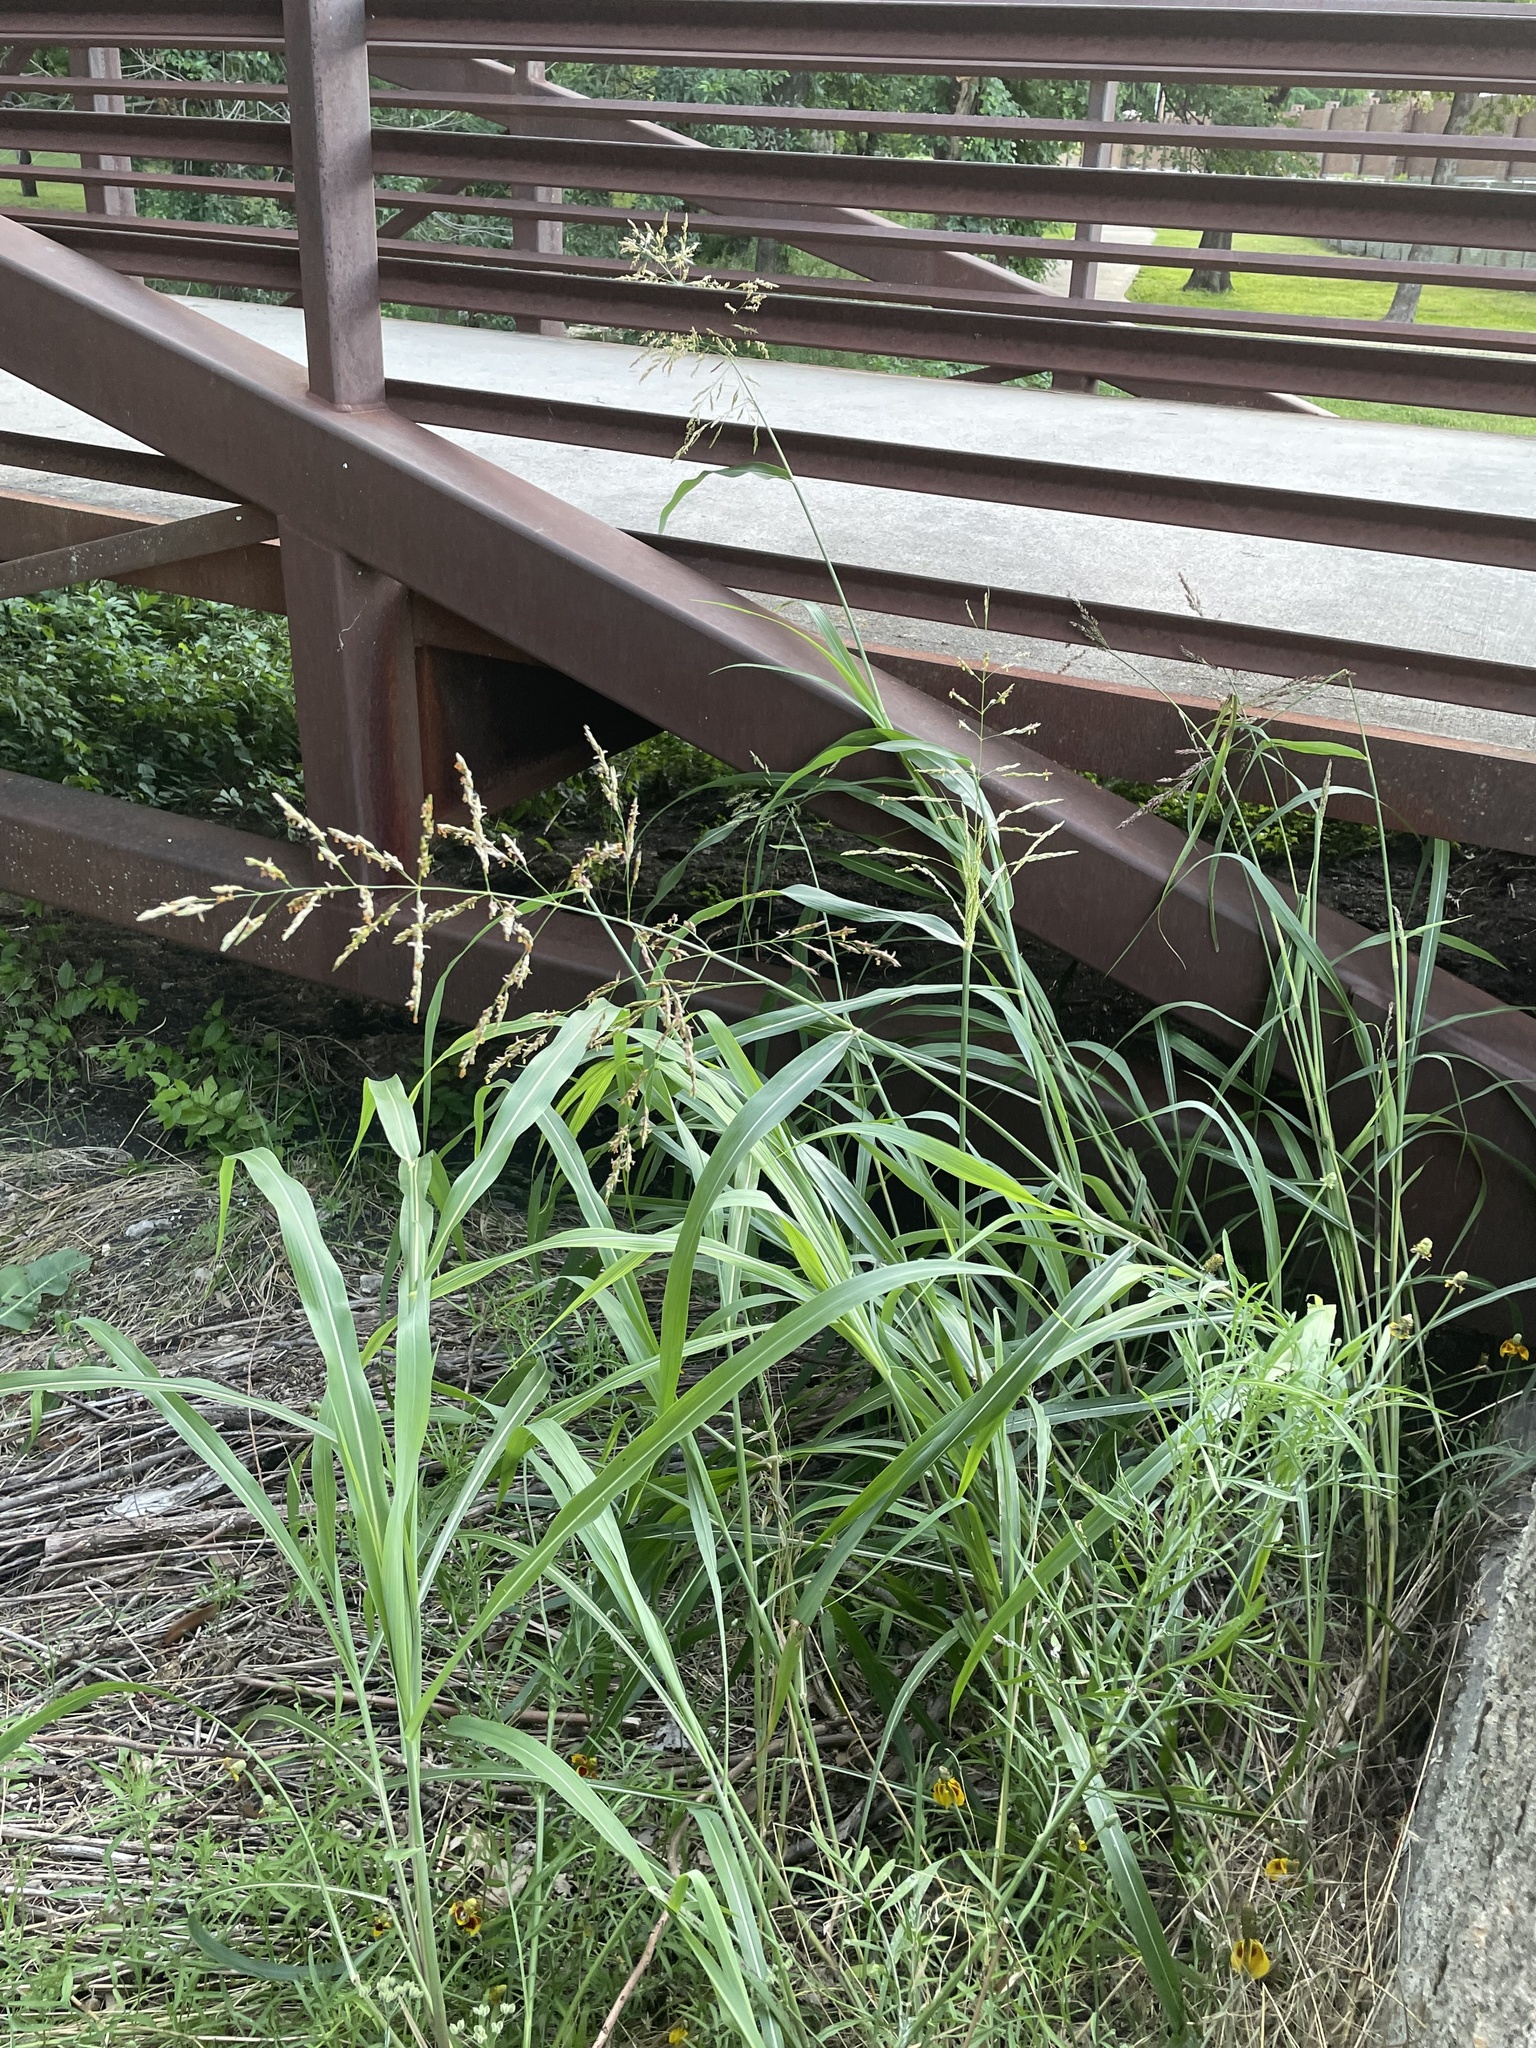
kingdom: Plantae
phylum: Tracheophyta
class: Liliopsida
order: Poales
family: Poaceae
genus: Sorghum
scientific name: Sorghum halepense
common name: Johnson-grass
